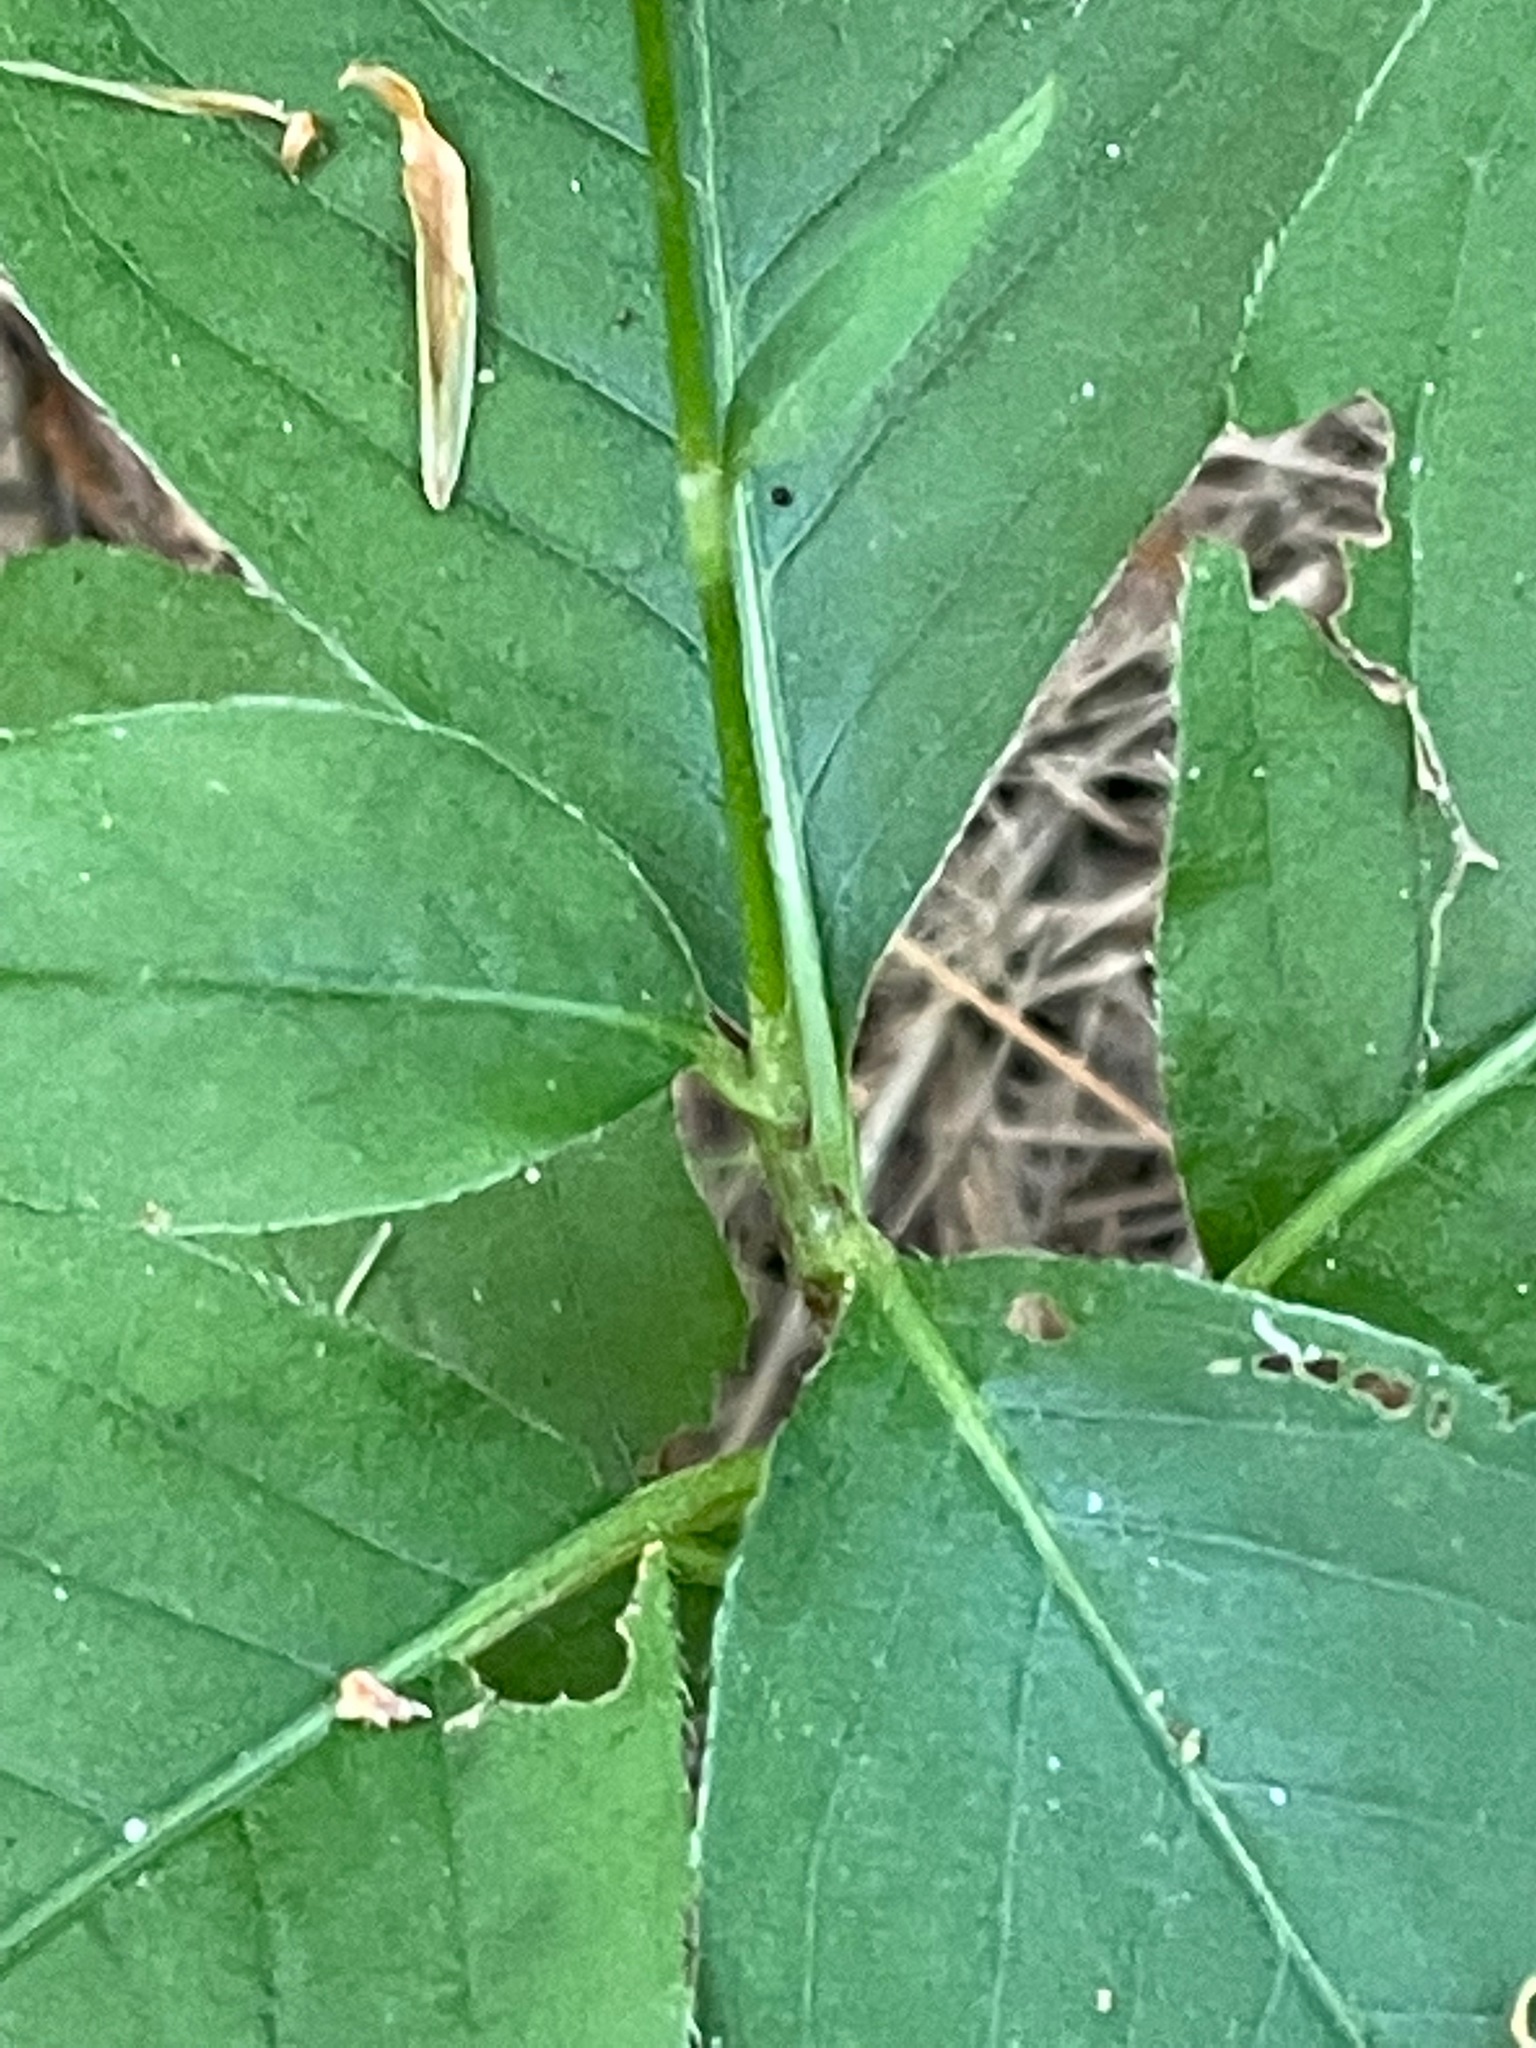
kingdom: Plantae
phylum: Tracheophyta
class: Magnoliopsida
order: Caryophyllales
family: Polygonaceae
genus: Persicaria
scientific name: Persicaria virginiana
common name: Jumpseed
